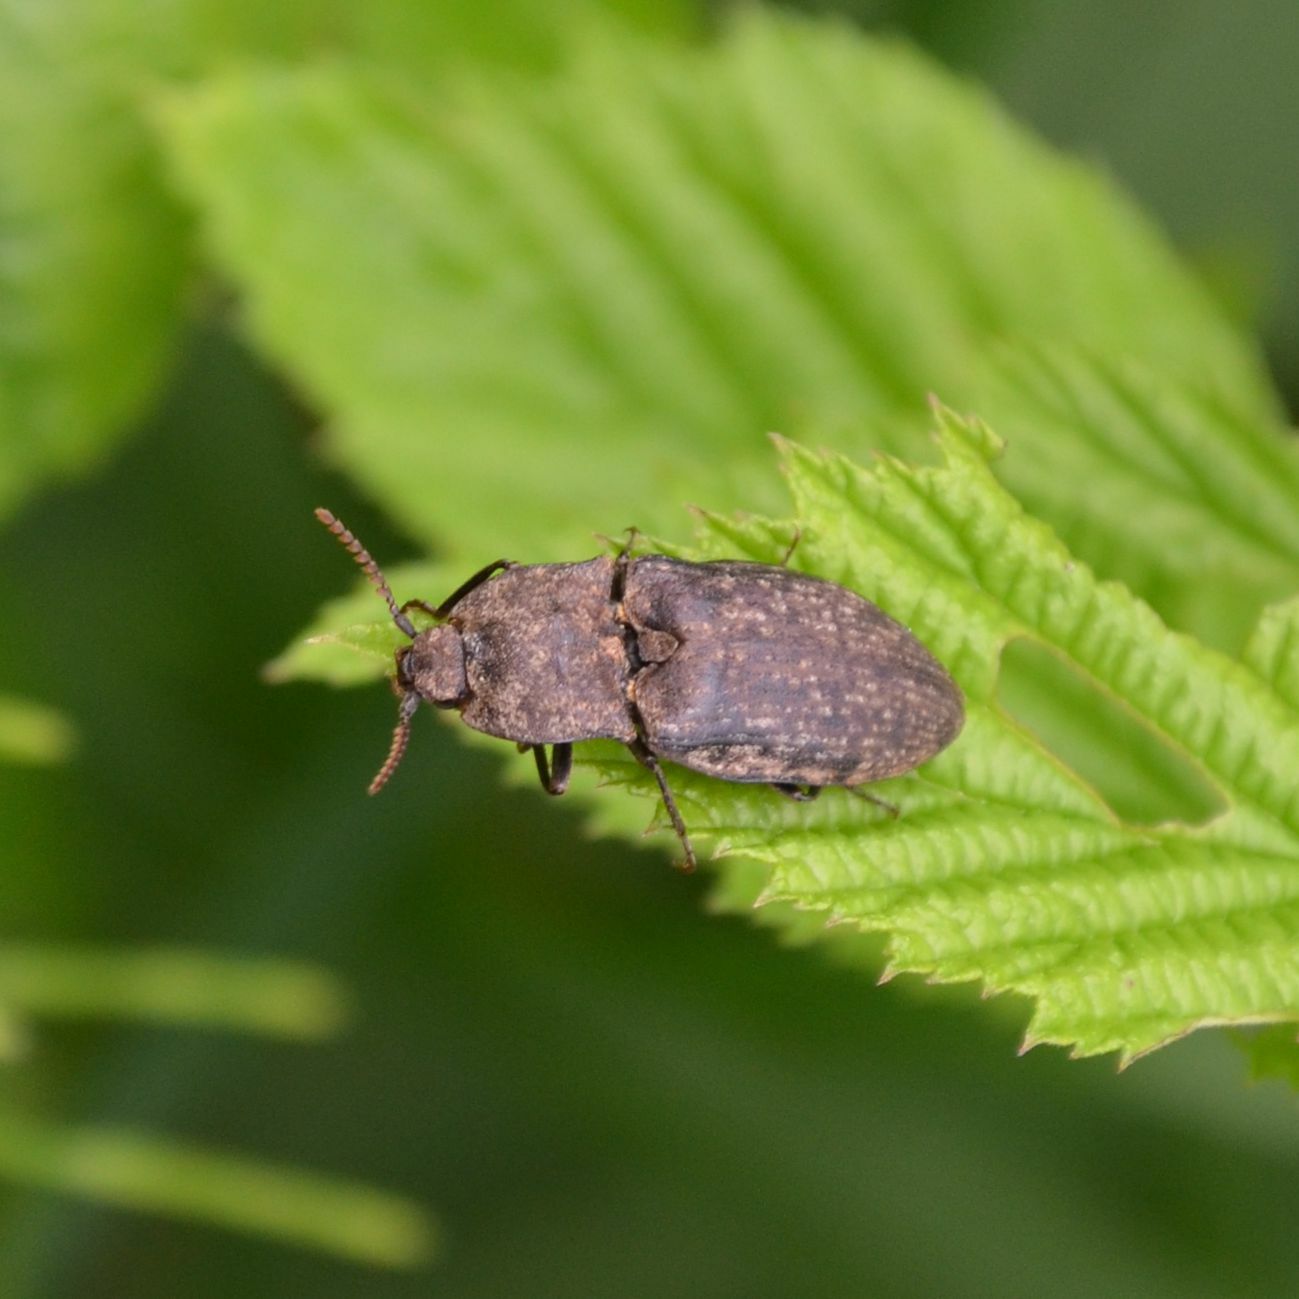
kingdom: Animalia
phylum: Arthropoda
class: Insecta
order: Coleoptera
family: Elateridae
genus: Agrypnus
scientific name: Agrypnus murinus
